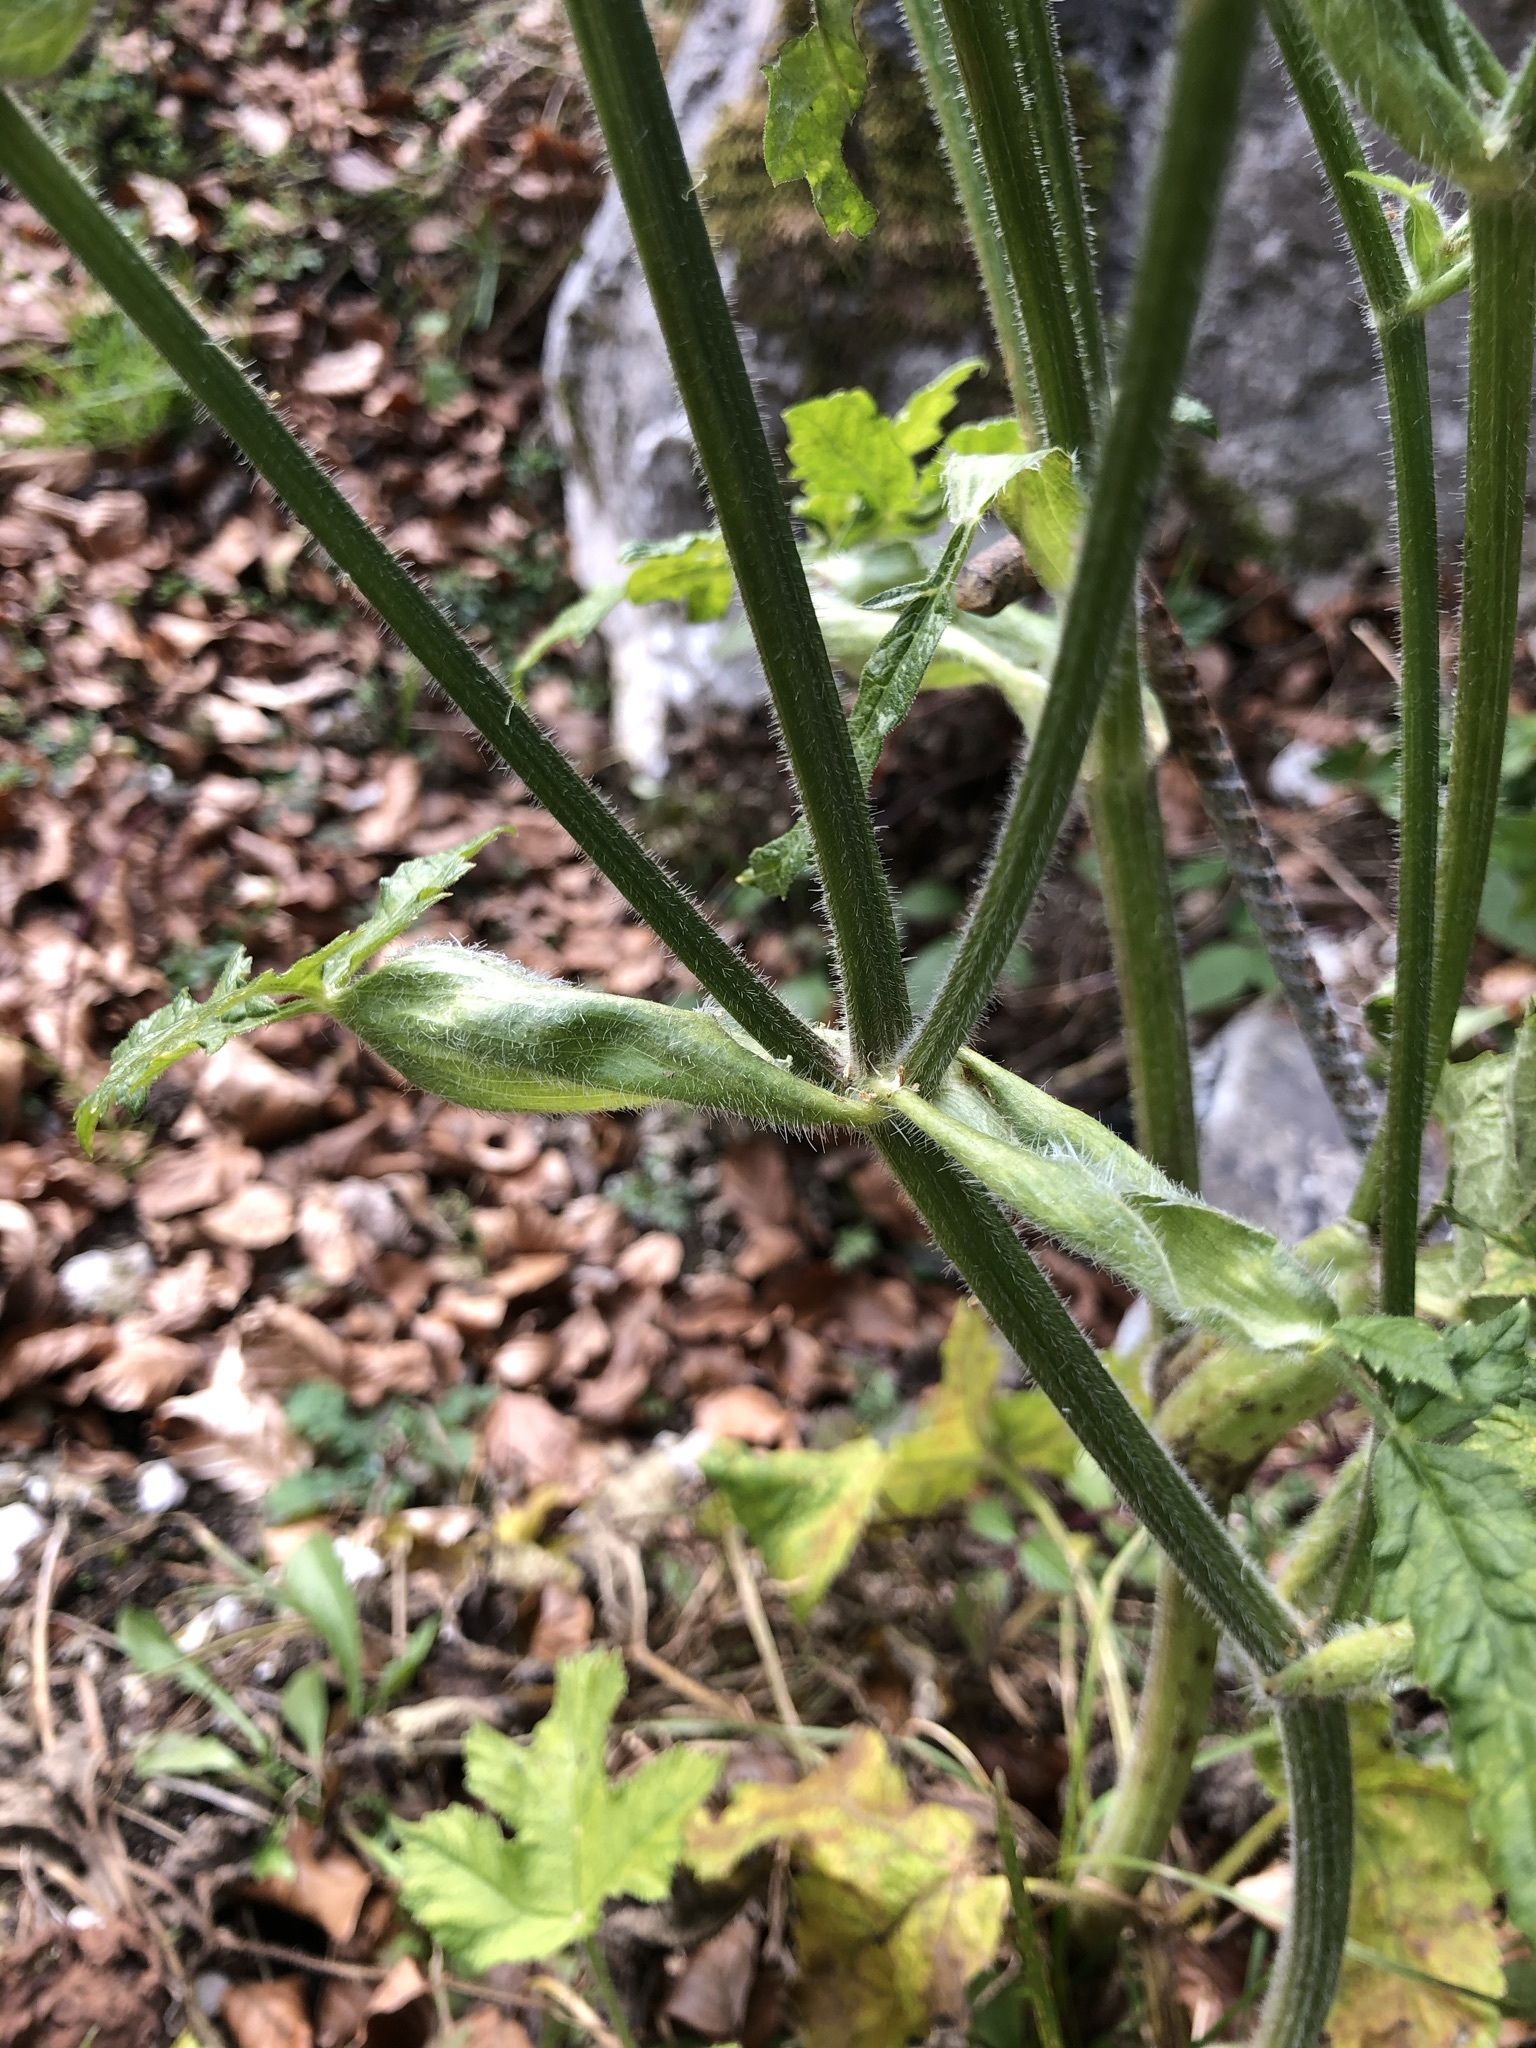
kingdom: Plantae
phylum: Tracheophyta
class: Magnoliopsida
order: Apiales
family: Apiaceae
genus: Heracleum
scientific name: Heracleum sphondylium
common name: Hogweed
